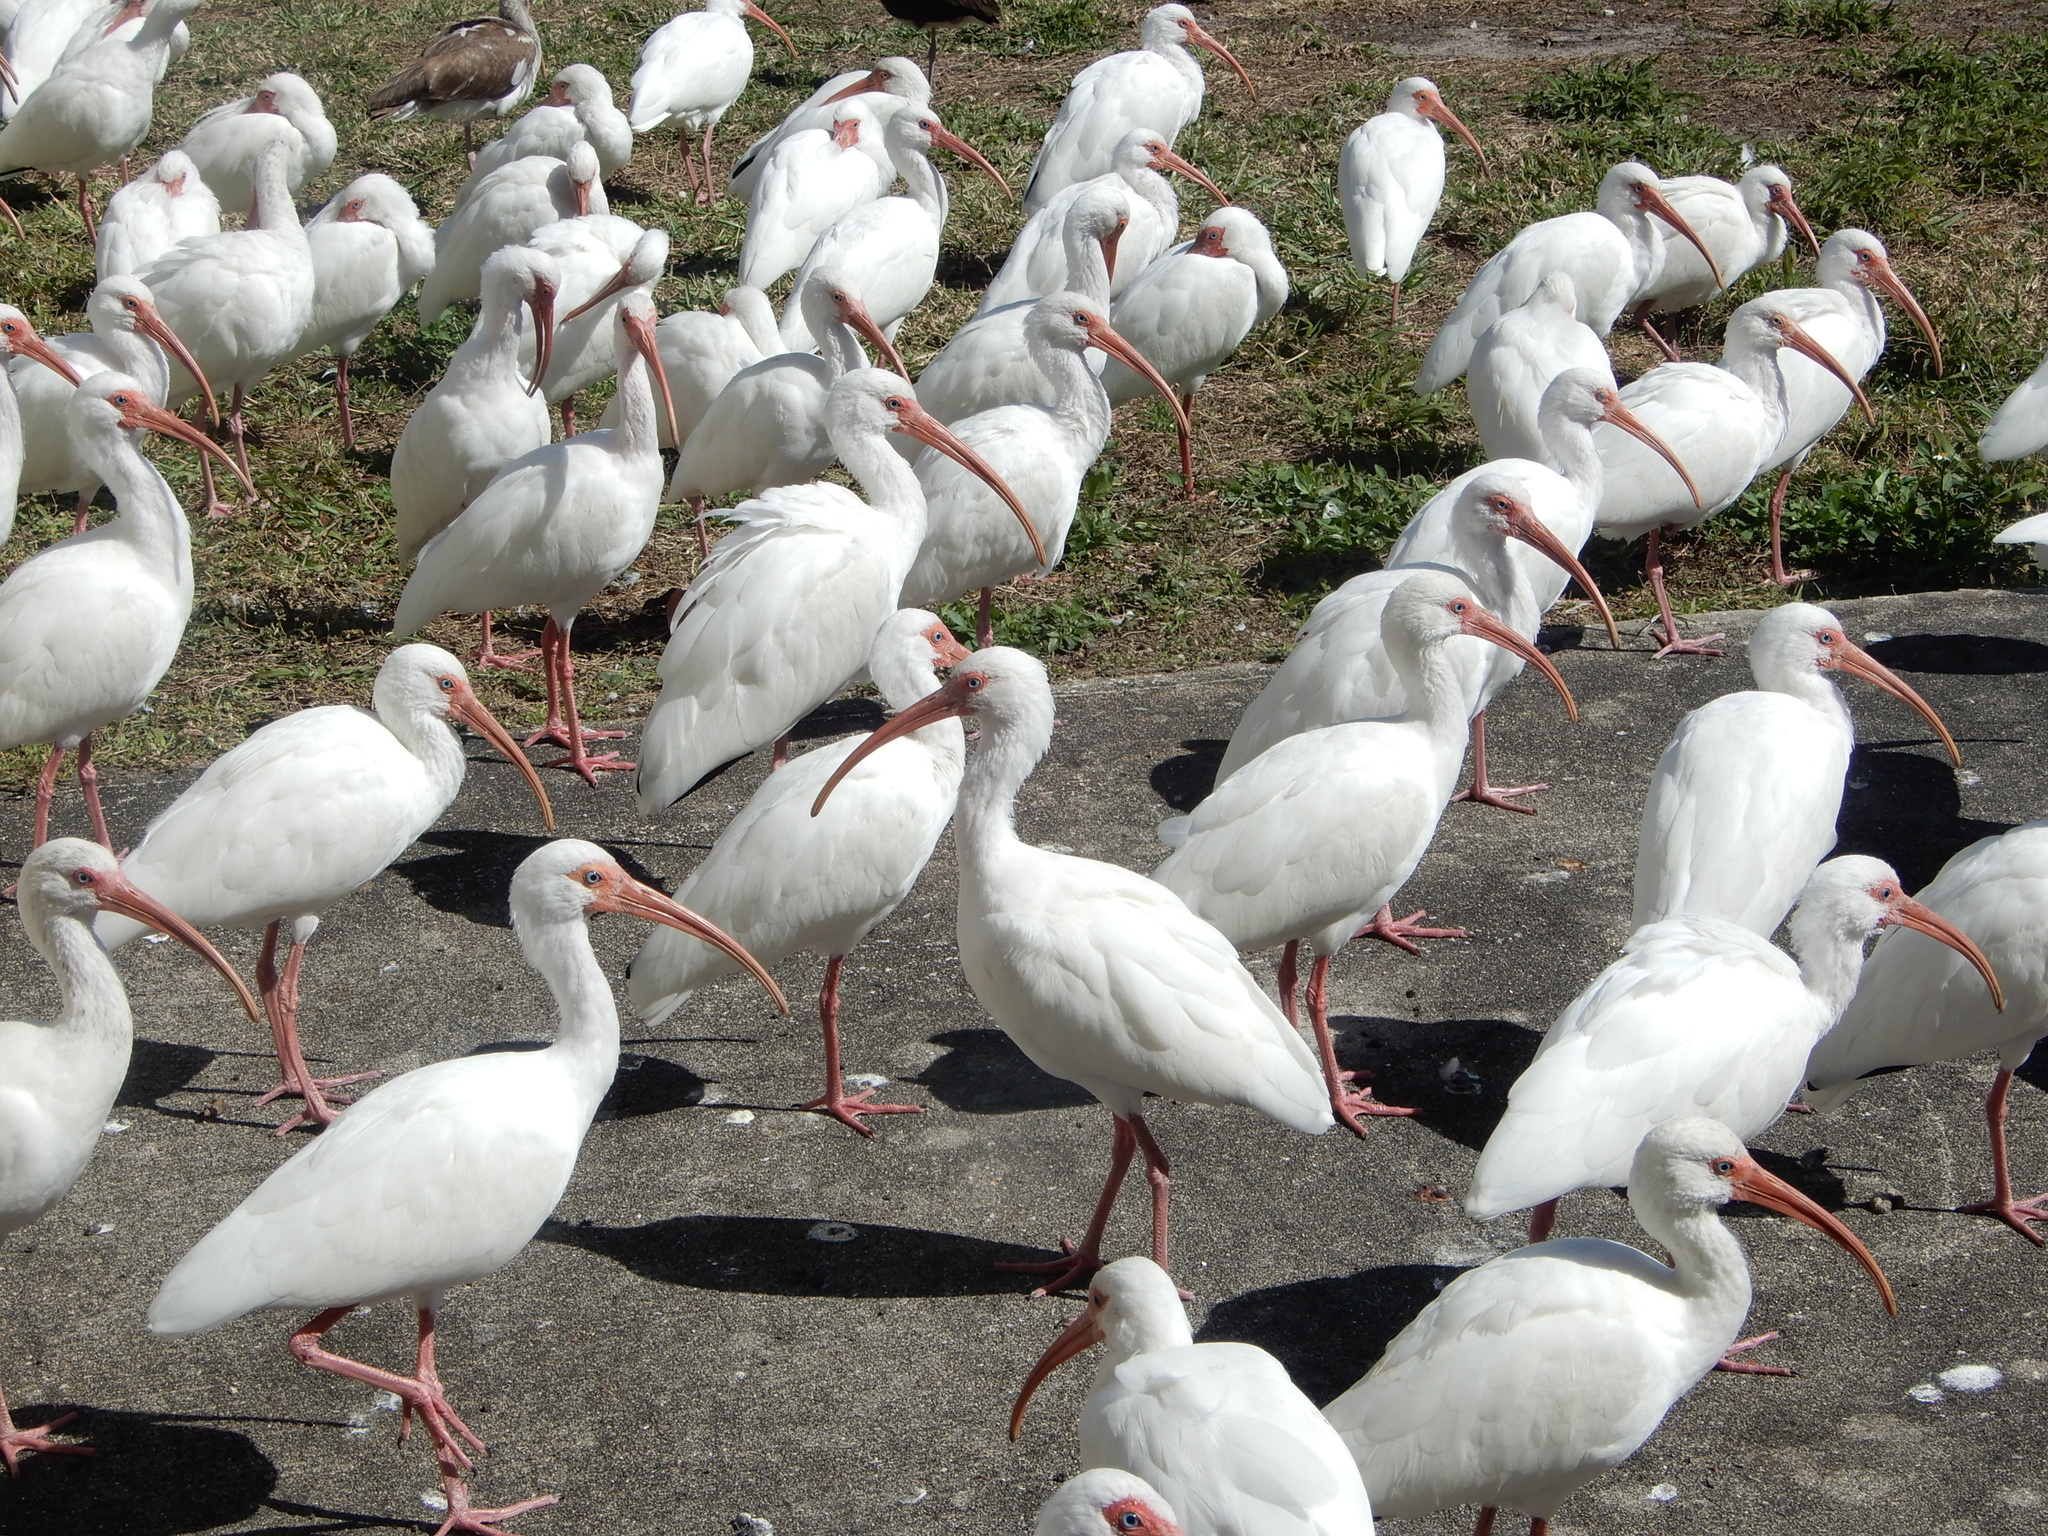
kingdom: Animalia
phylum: Chordata
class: Aves
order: Pelecaniformes
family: Threskiornithidae
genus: Eudocimus
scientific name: Eudocimus albus
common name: White ibis
